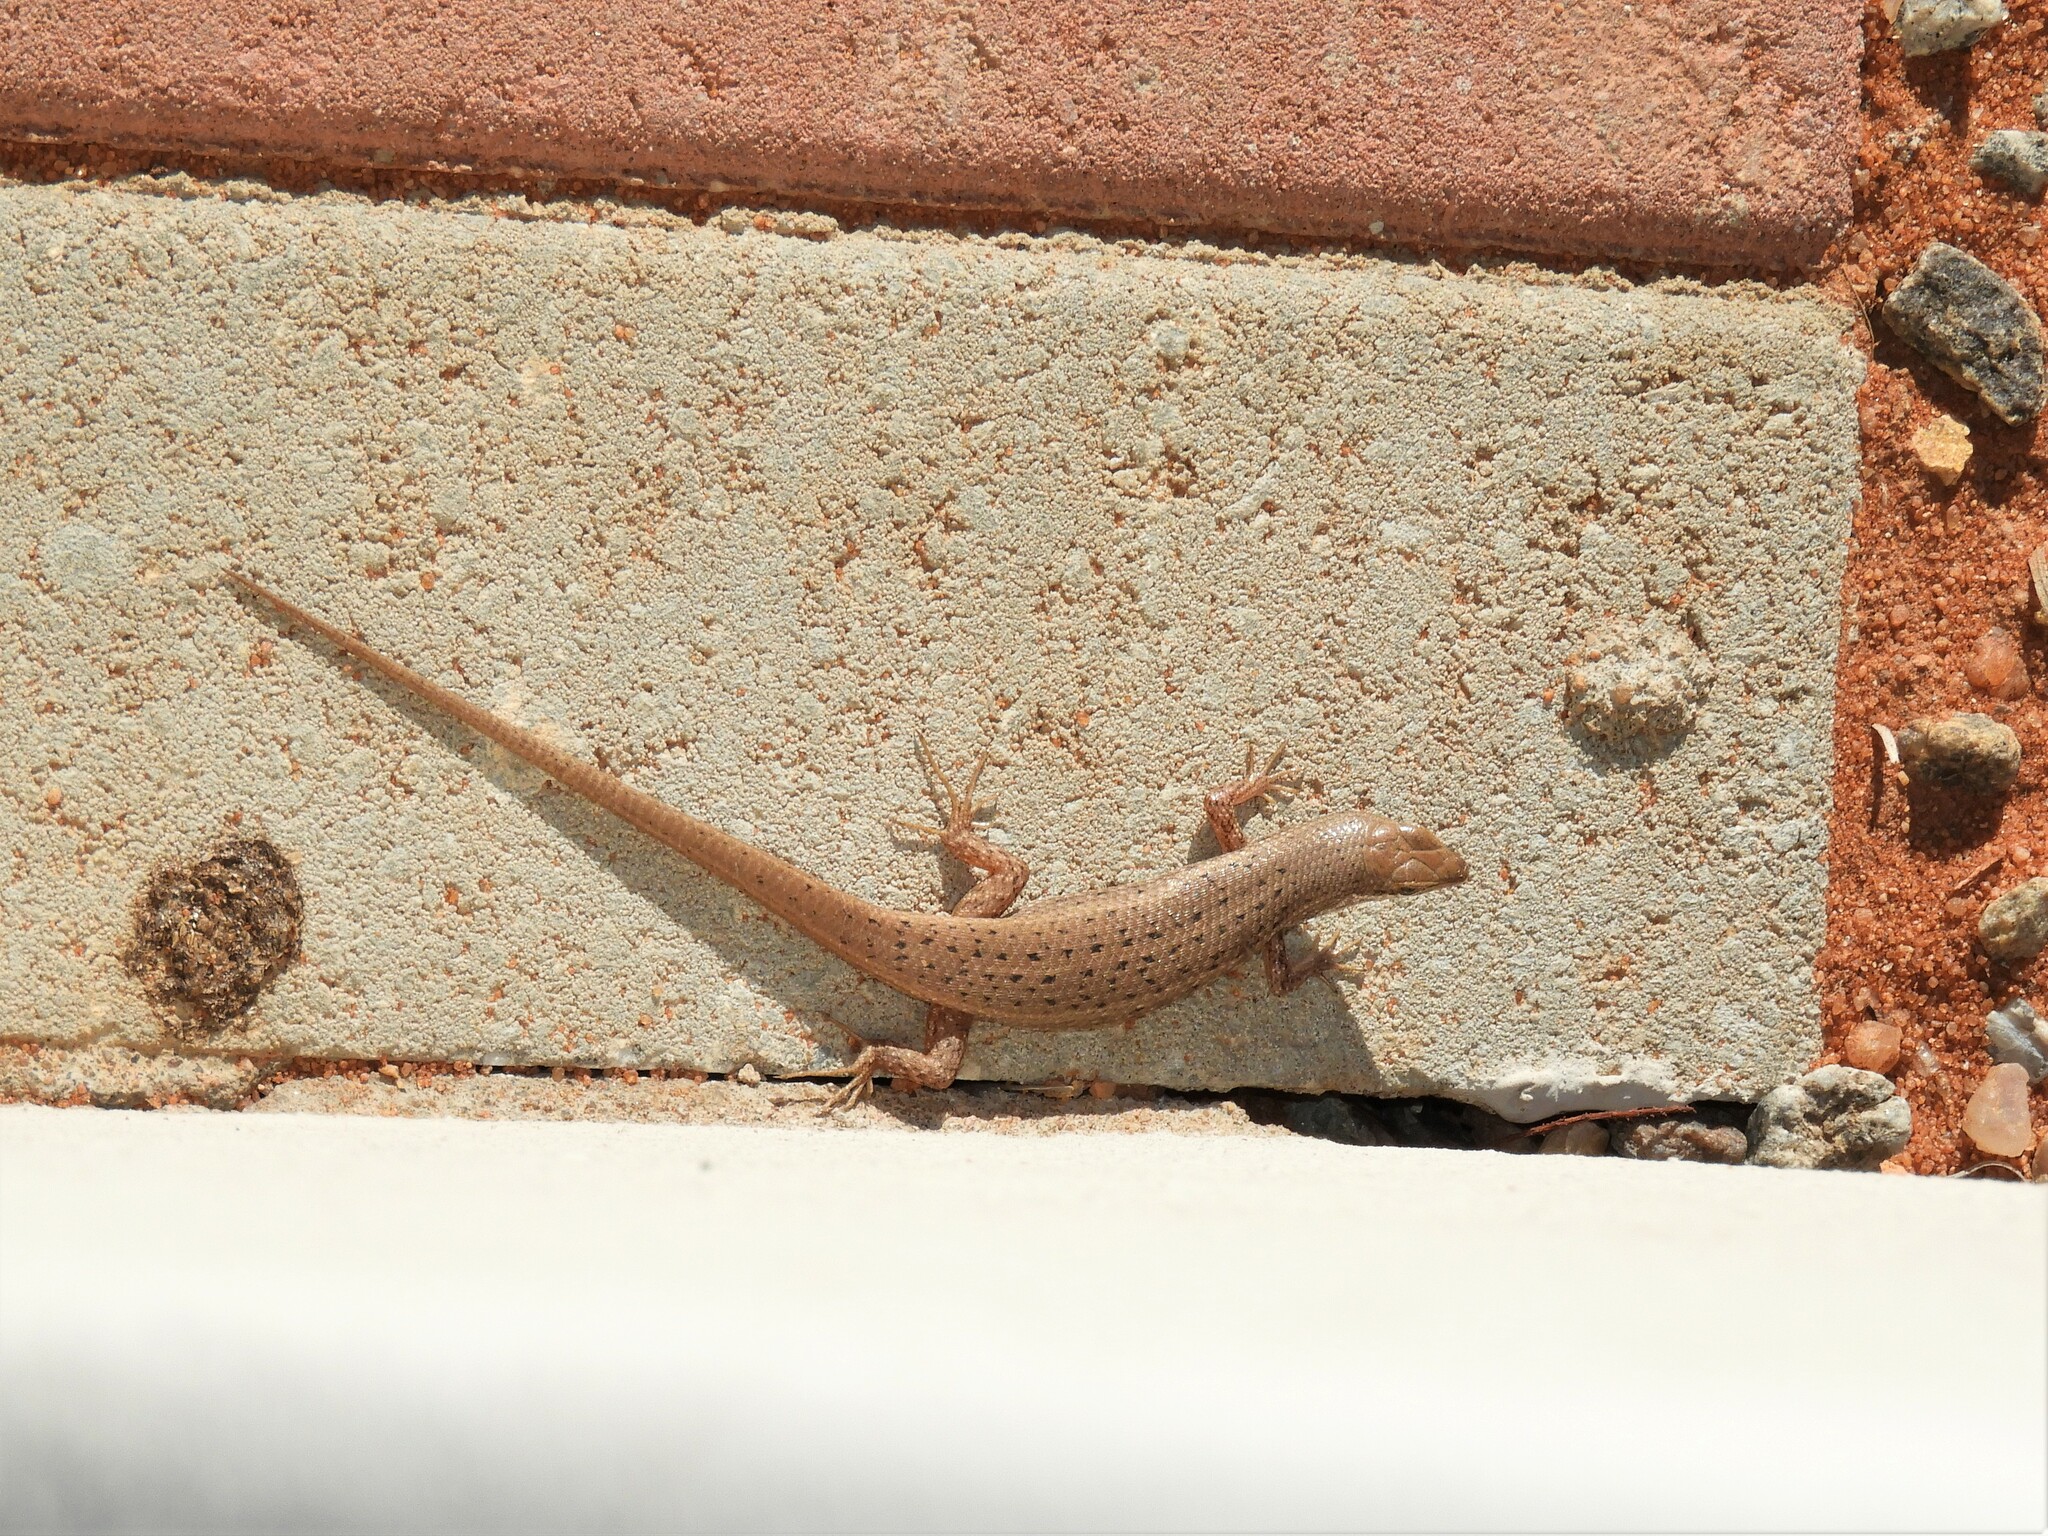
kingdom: Animalia
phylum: Chordata
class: Squamata
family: Scincidae
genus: Trachylepis
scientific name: Trachylepis variegata
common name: Variegated skink
